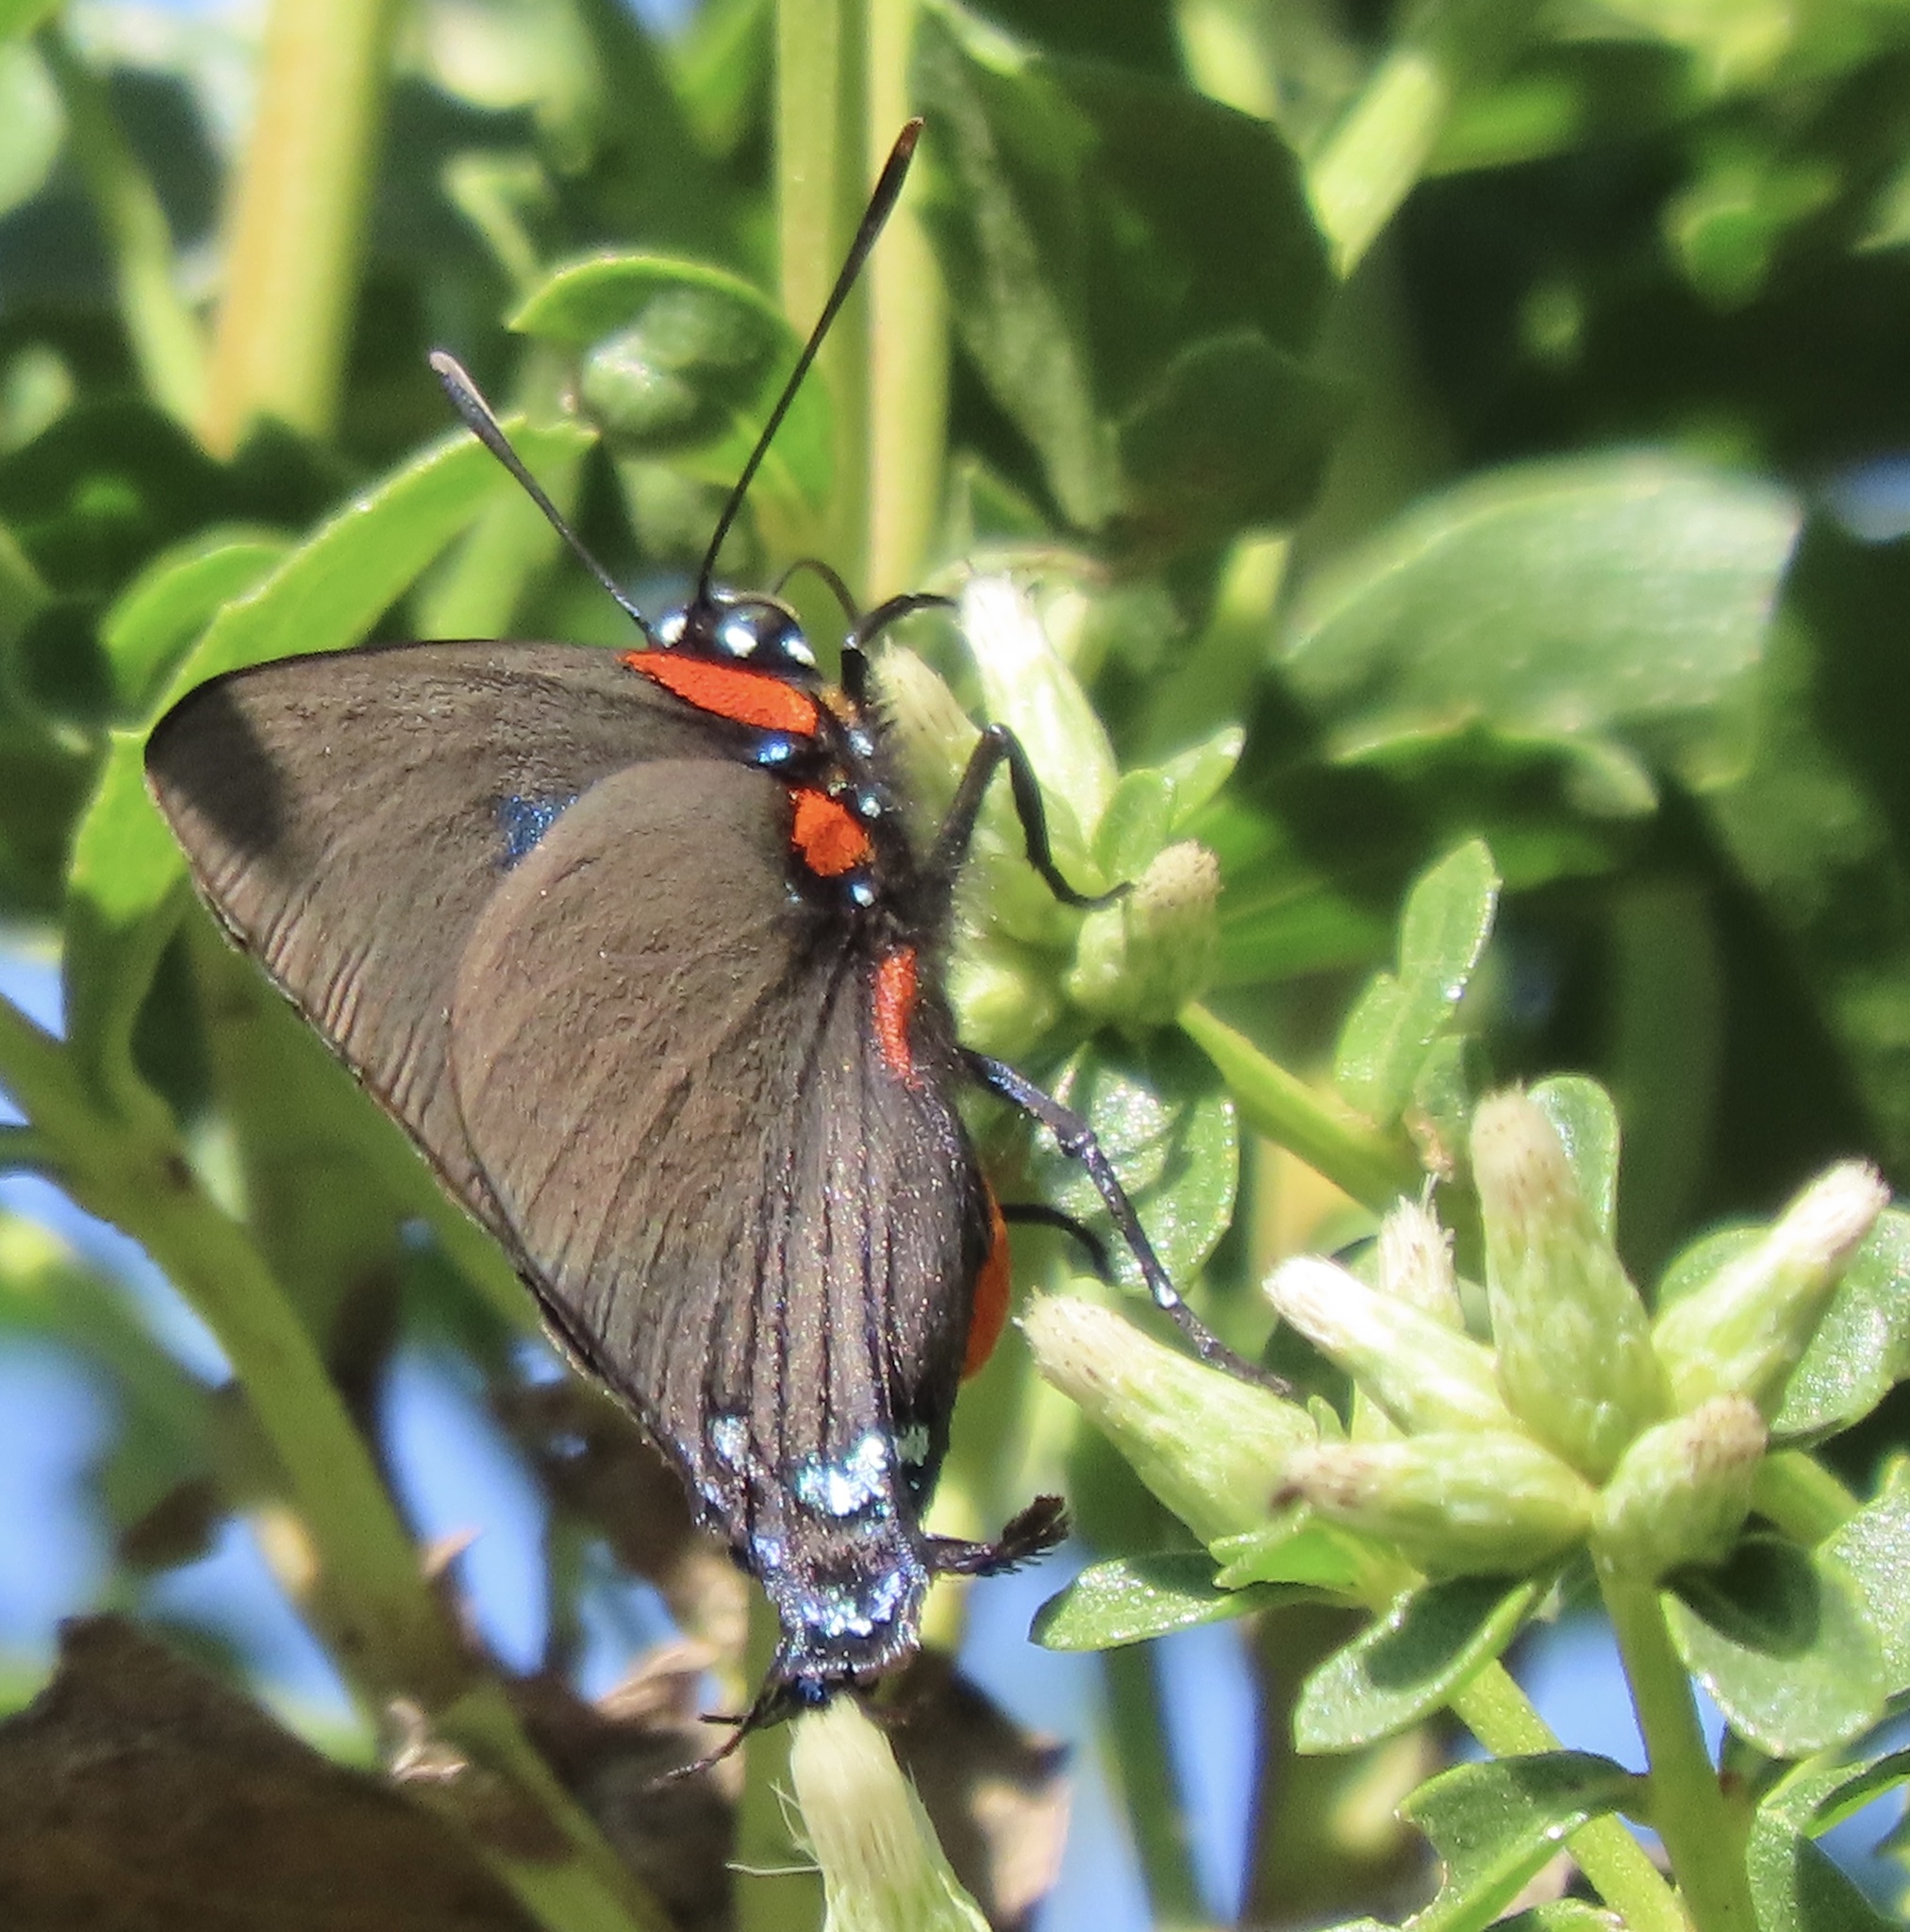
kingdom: Animalia
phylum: Arthropoda
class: Insecta
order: Lepidoptera
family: Lycaenidae
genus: Atlides
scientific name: Atlides halesus
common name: Great purple hairstreak
